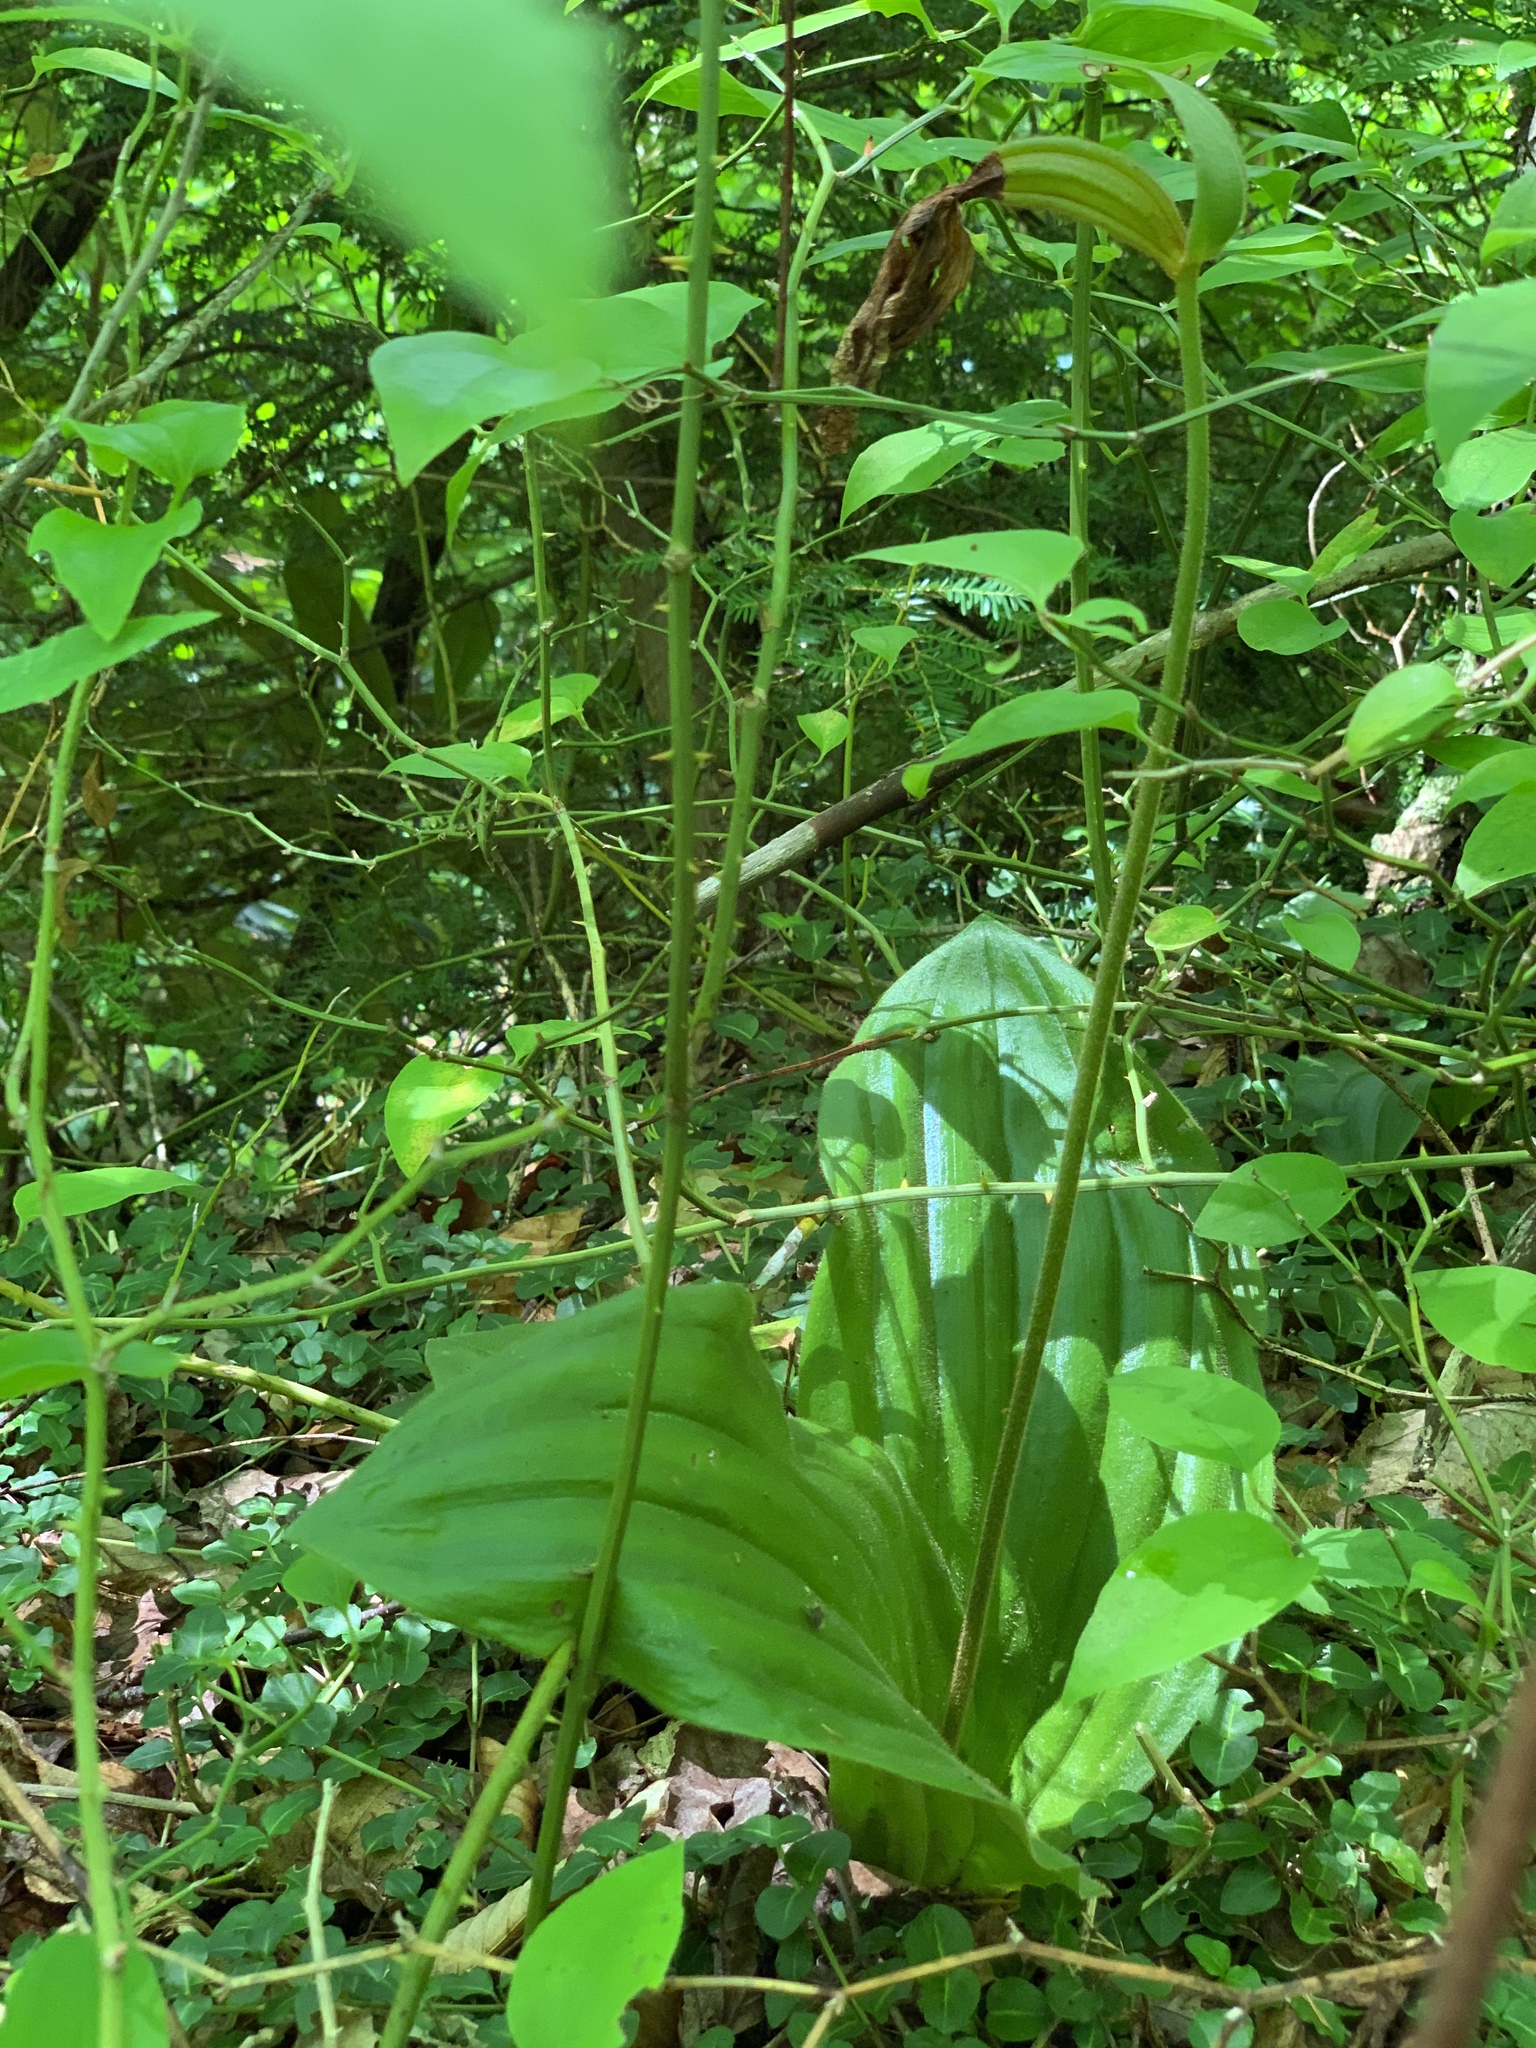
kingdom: Plantae
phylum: Tracheophyta
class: Liliopsida
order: Asparagales
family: Orchidaceae
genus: Cypripedium
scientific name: Cypripedium acaule
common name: Pink lady's-slipper
